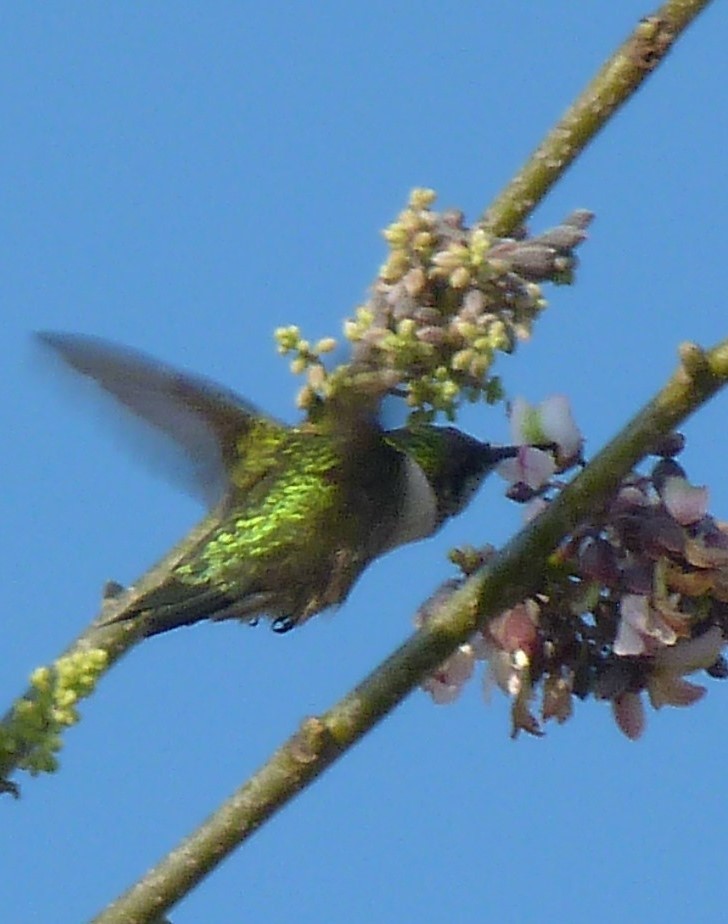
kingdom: Animalia
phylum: Chordata
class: Aves
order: Apodiformes
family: Trochilidae
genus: Archilochus
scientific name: Archilochus colubris
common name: Ruby-throated hummingbird
